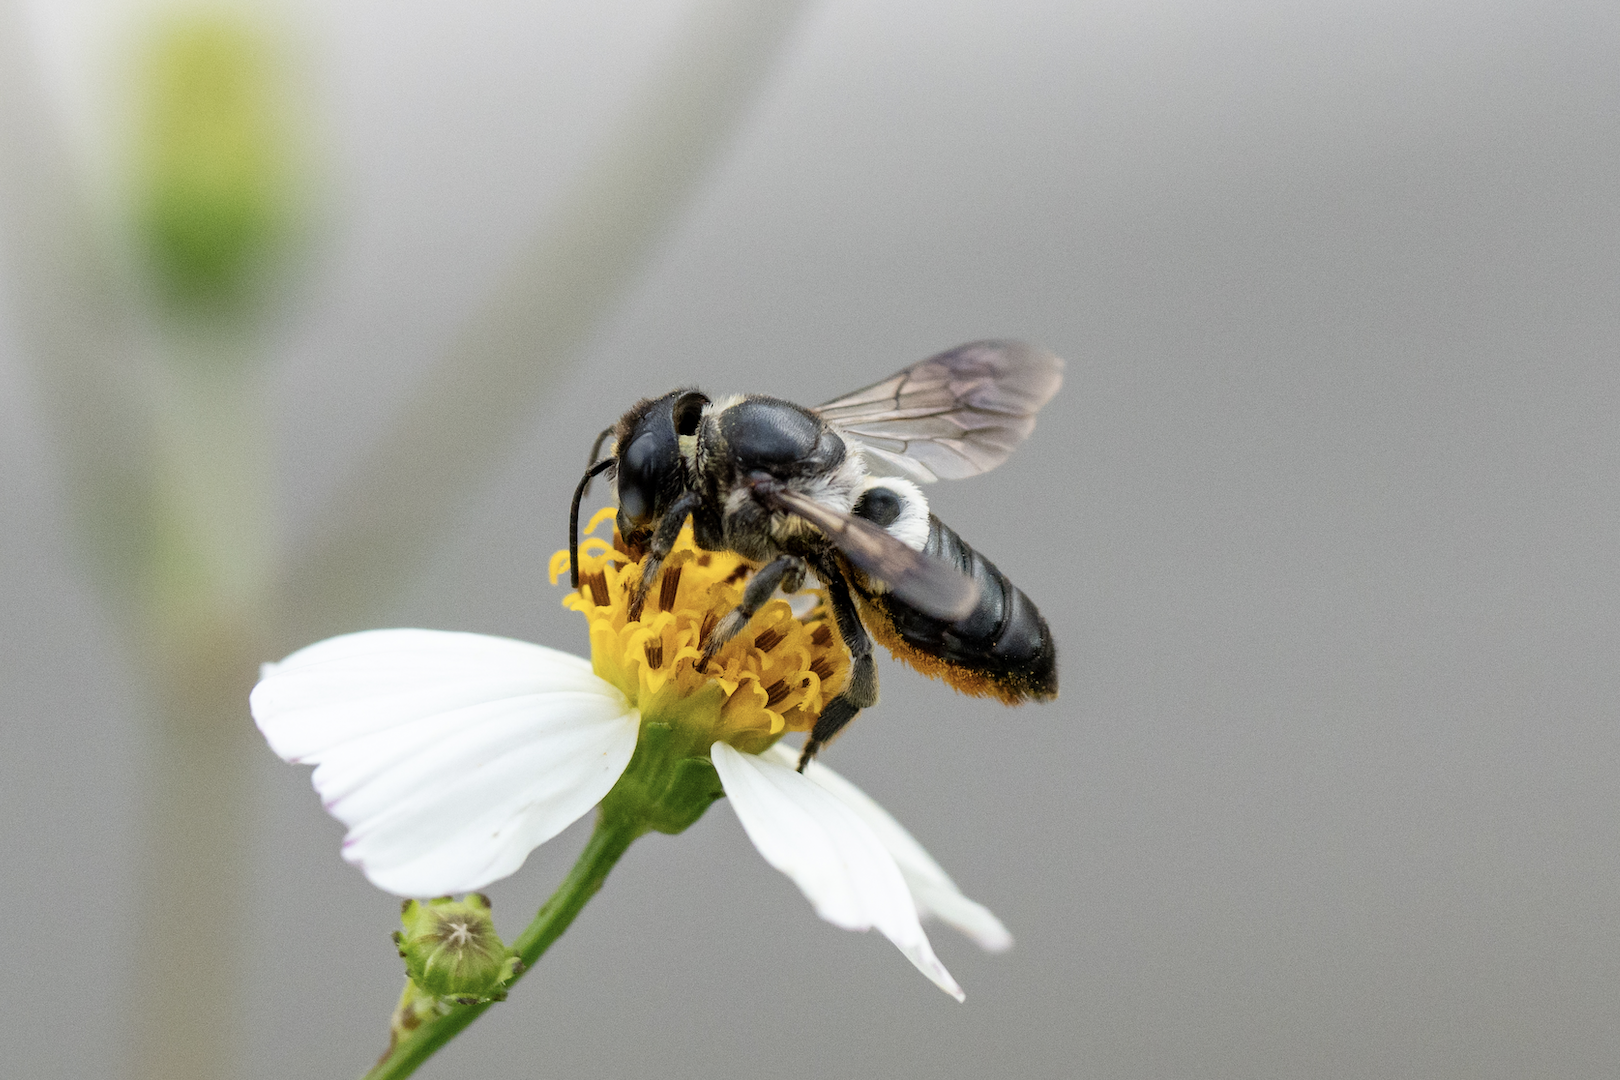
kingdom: Animalia
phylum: Arthropoda
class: Insecta
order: Hymenoptera
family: Megachilidae
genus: Megachile
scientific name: Megachile conjuncta
